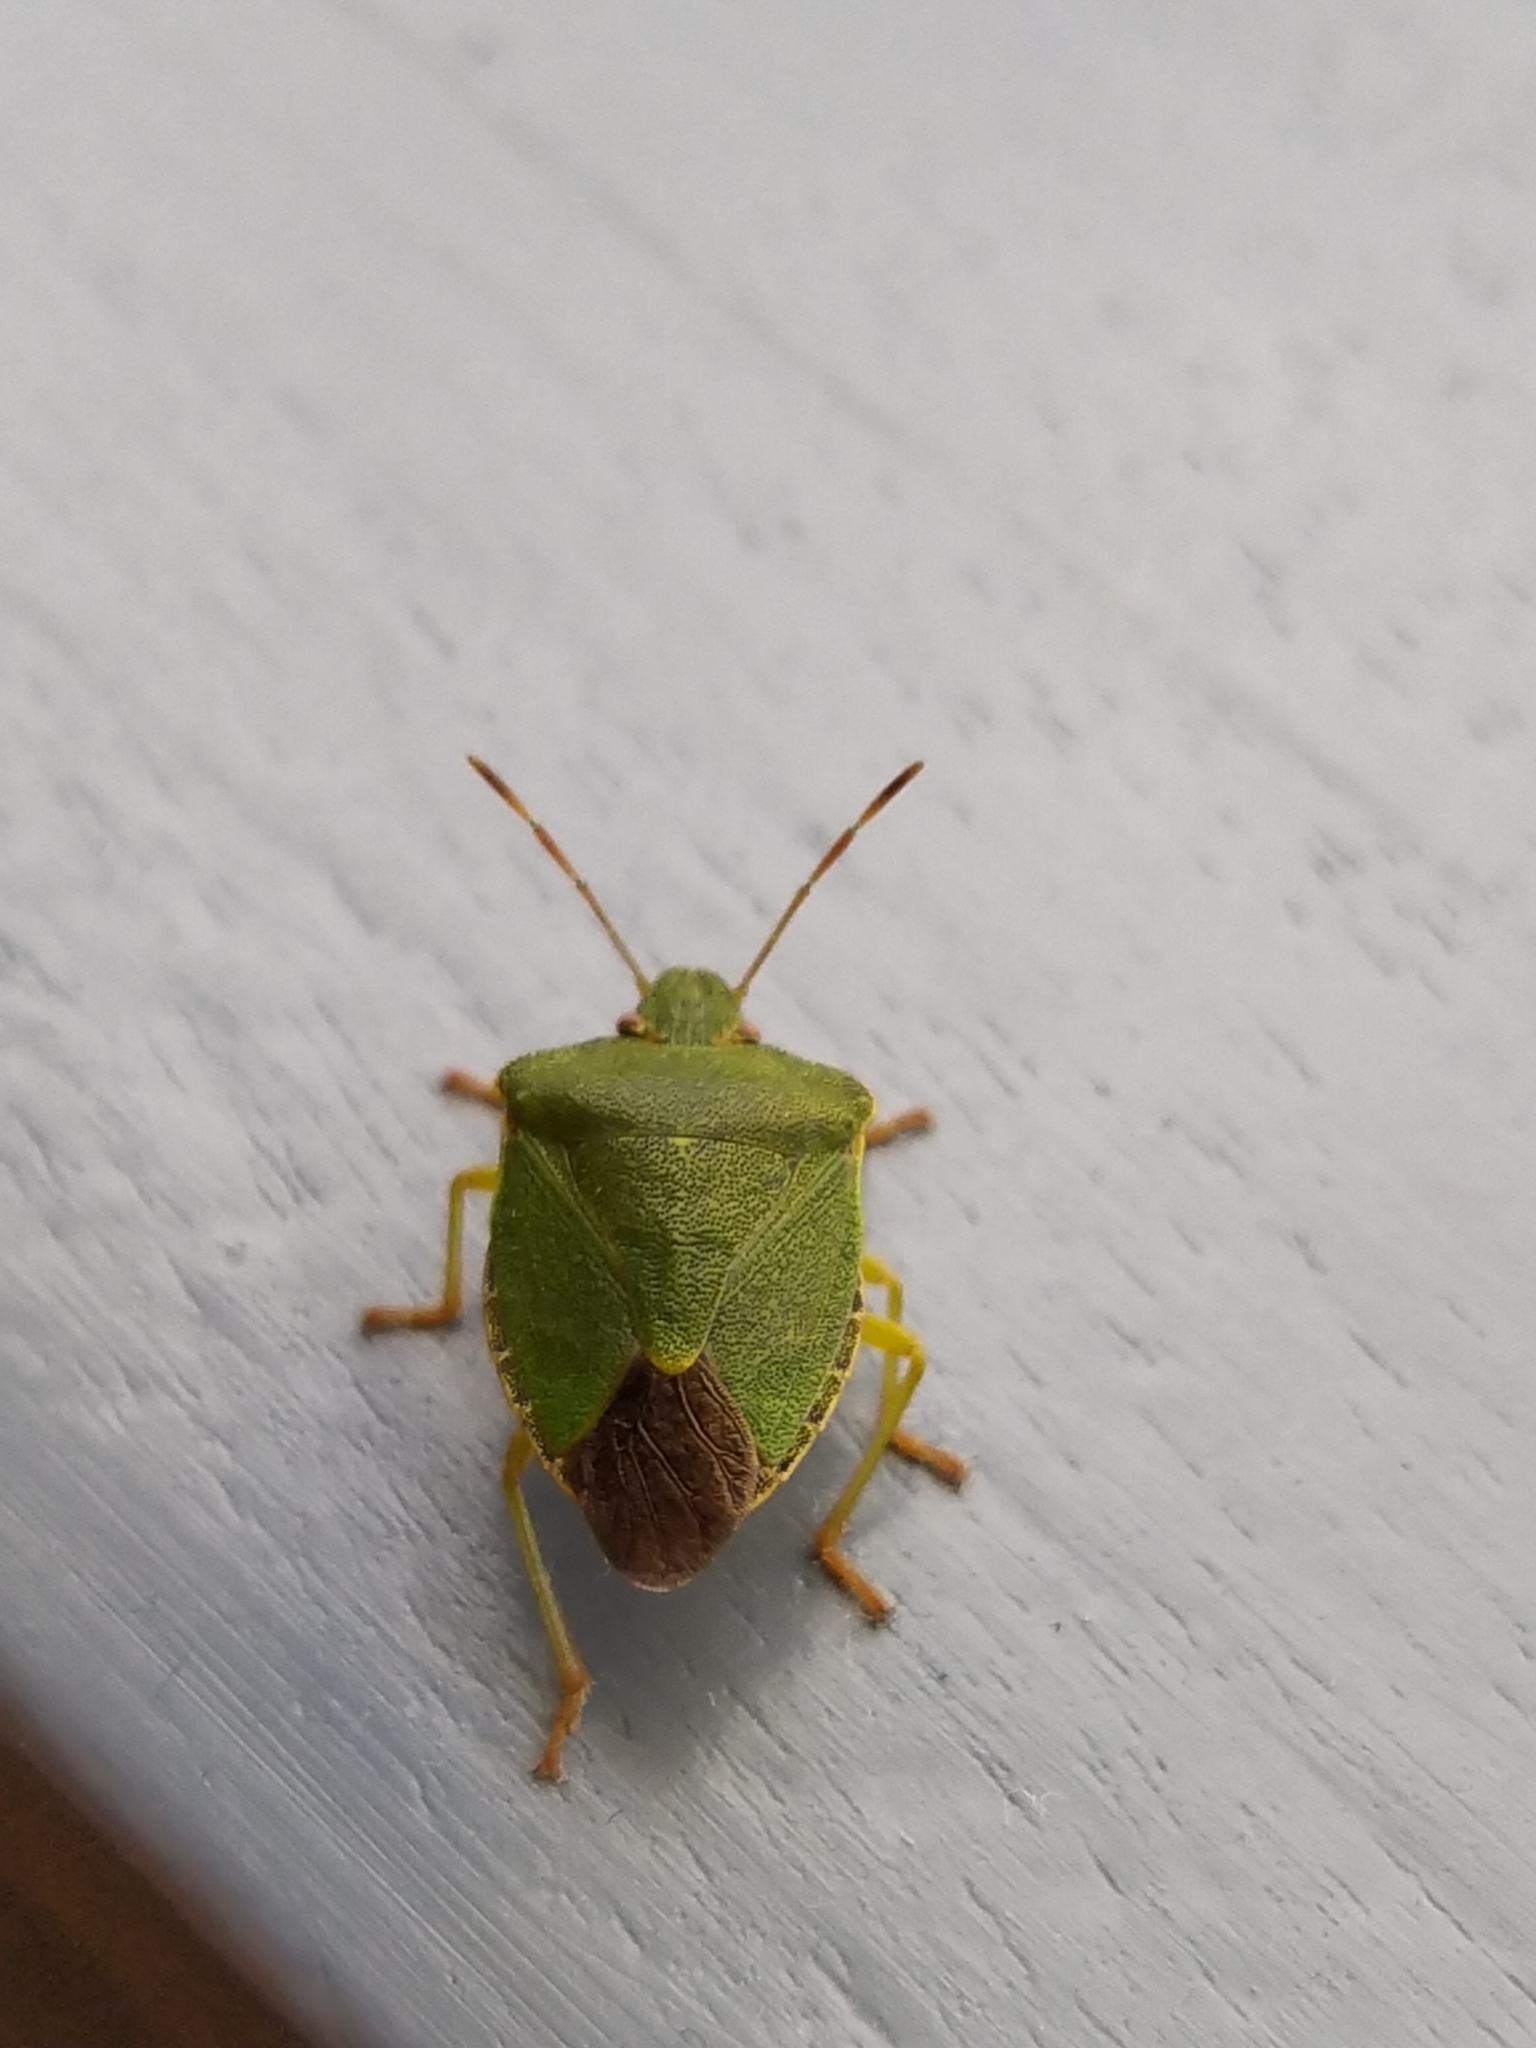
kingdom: Animalia
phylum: Arthropoda
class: Insecta
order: Hemiptera
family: Pentatomidae
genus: Palomena
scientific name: Palomena prasina
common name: Green shieldbug
